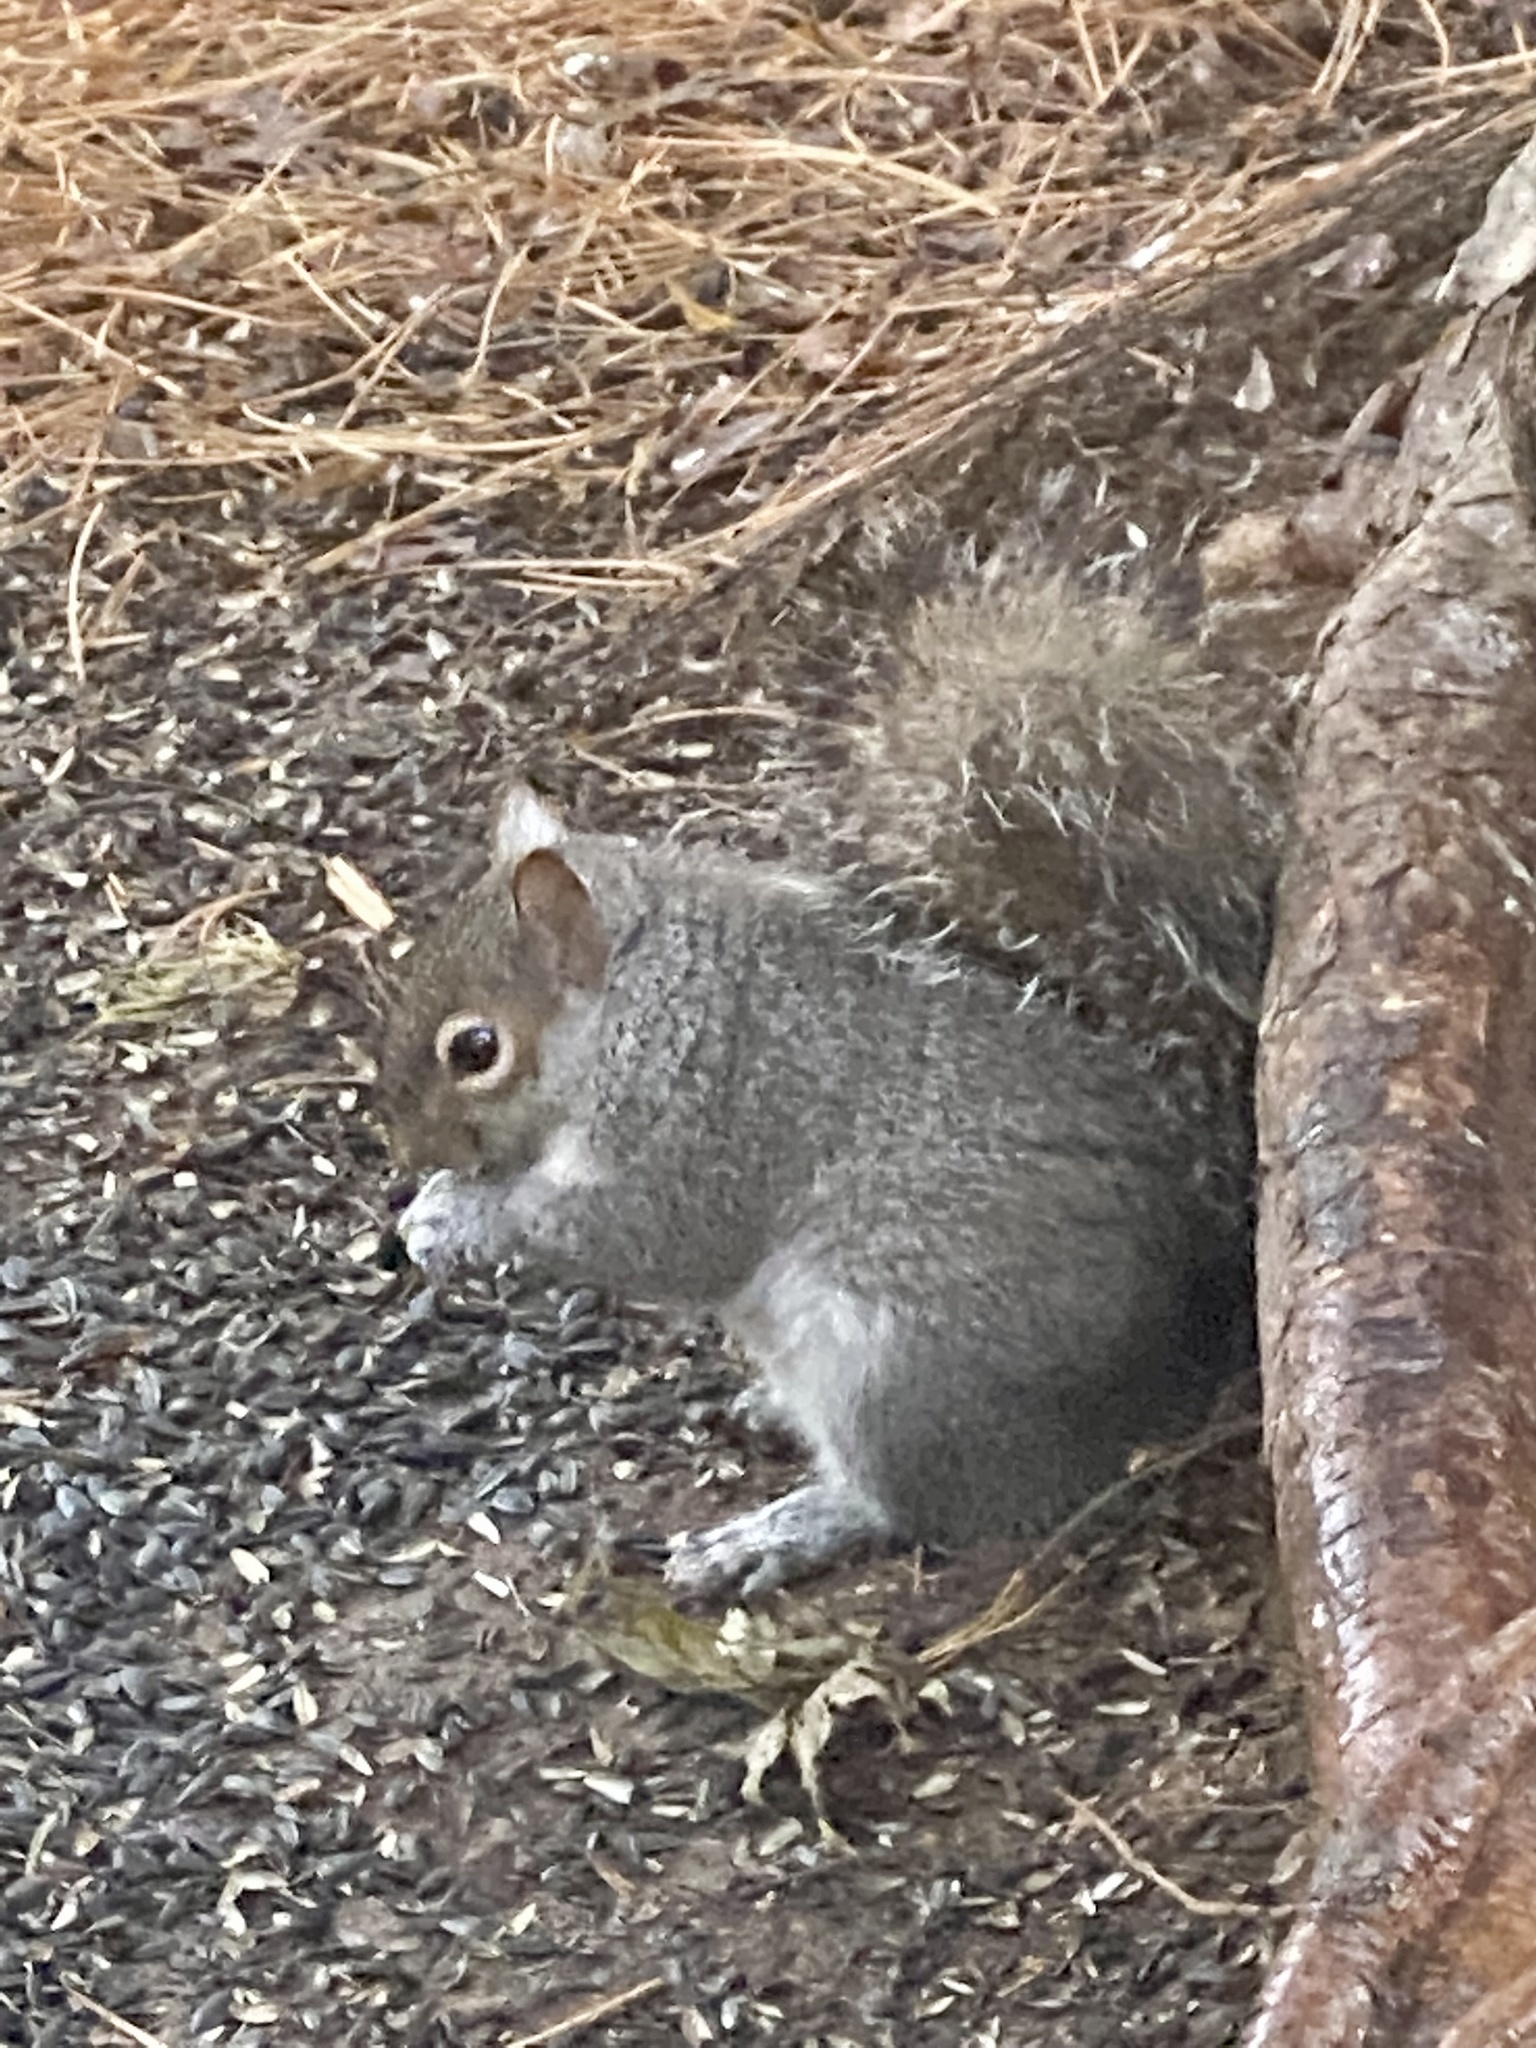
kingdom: Animalia
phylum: Chordata
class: Mammalia
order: Rodentia
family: Sciuridae
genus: Sciurus
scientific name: Sciurus carolinensis
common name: Eastern gray squirrel
